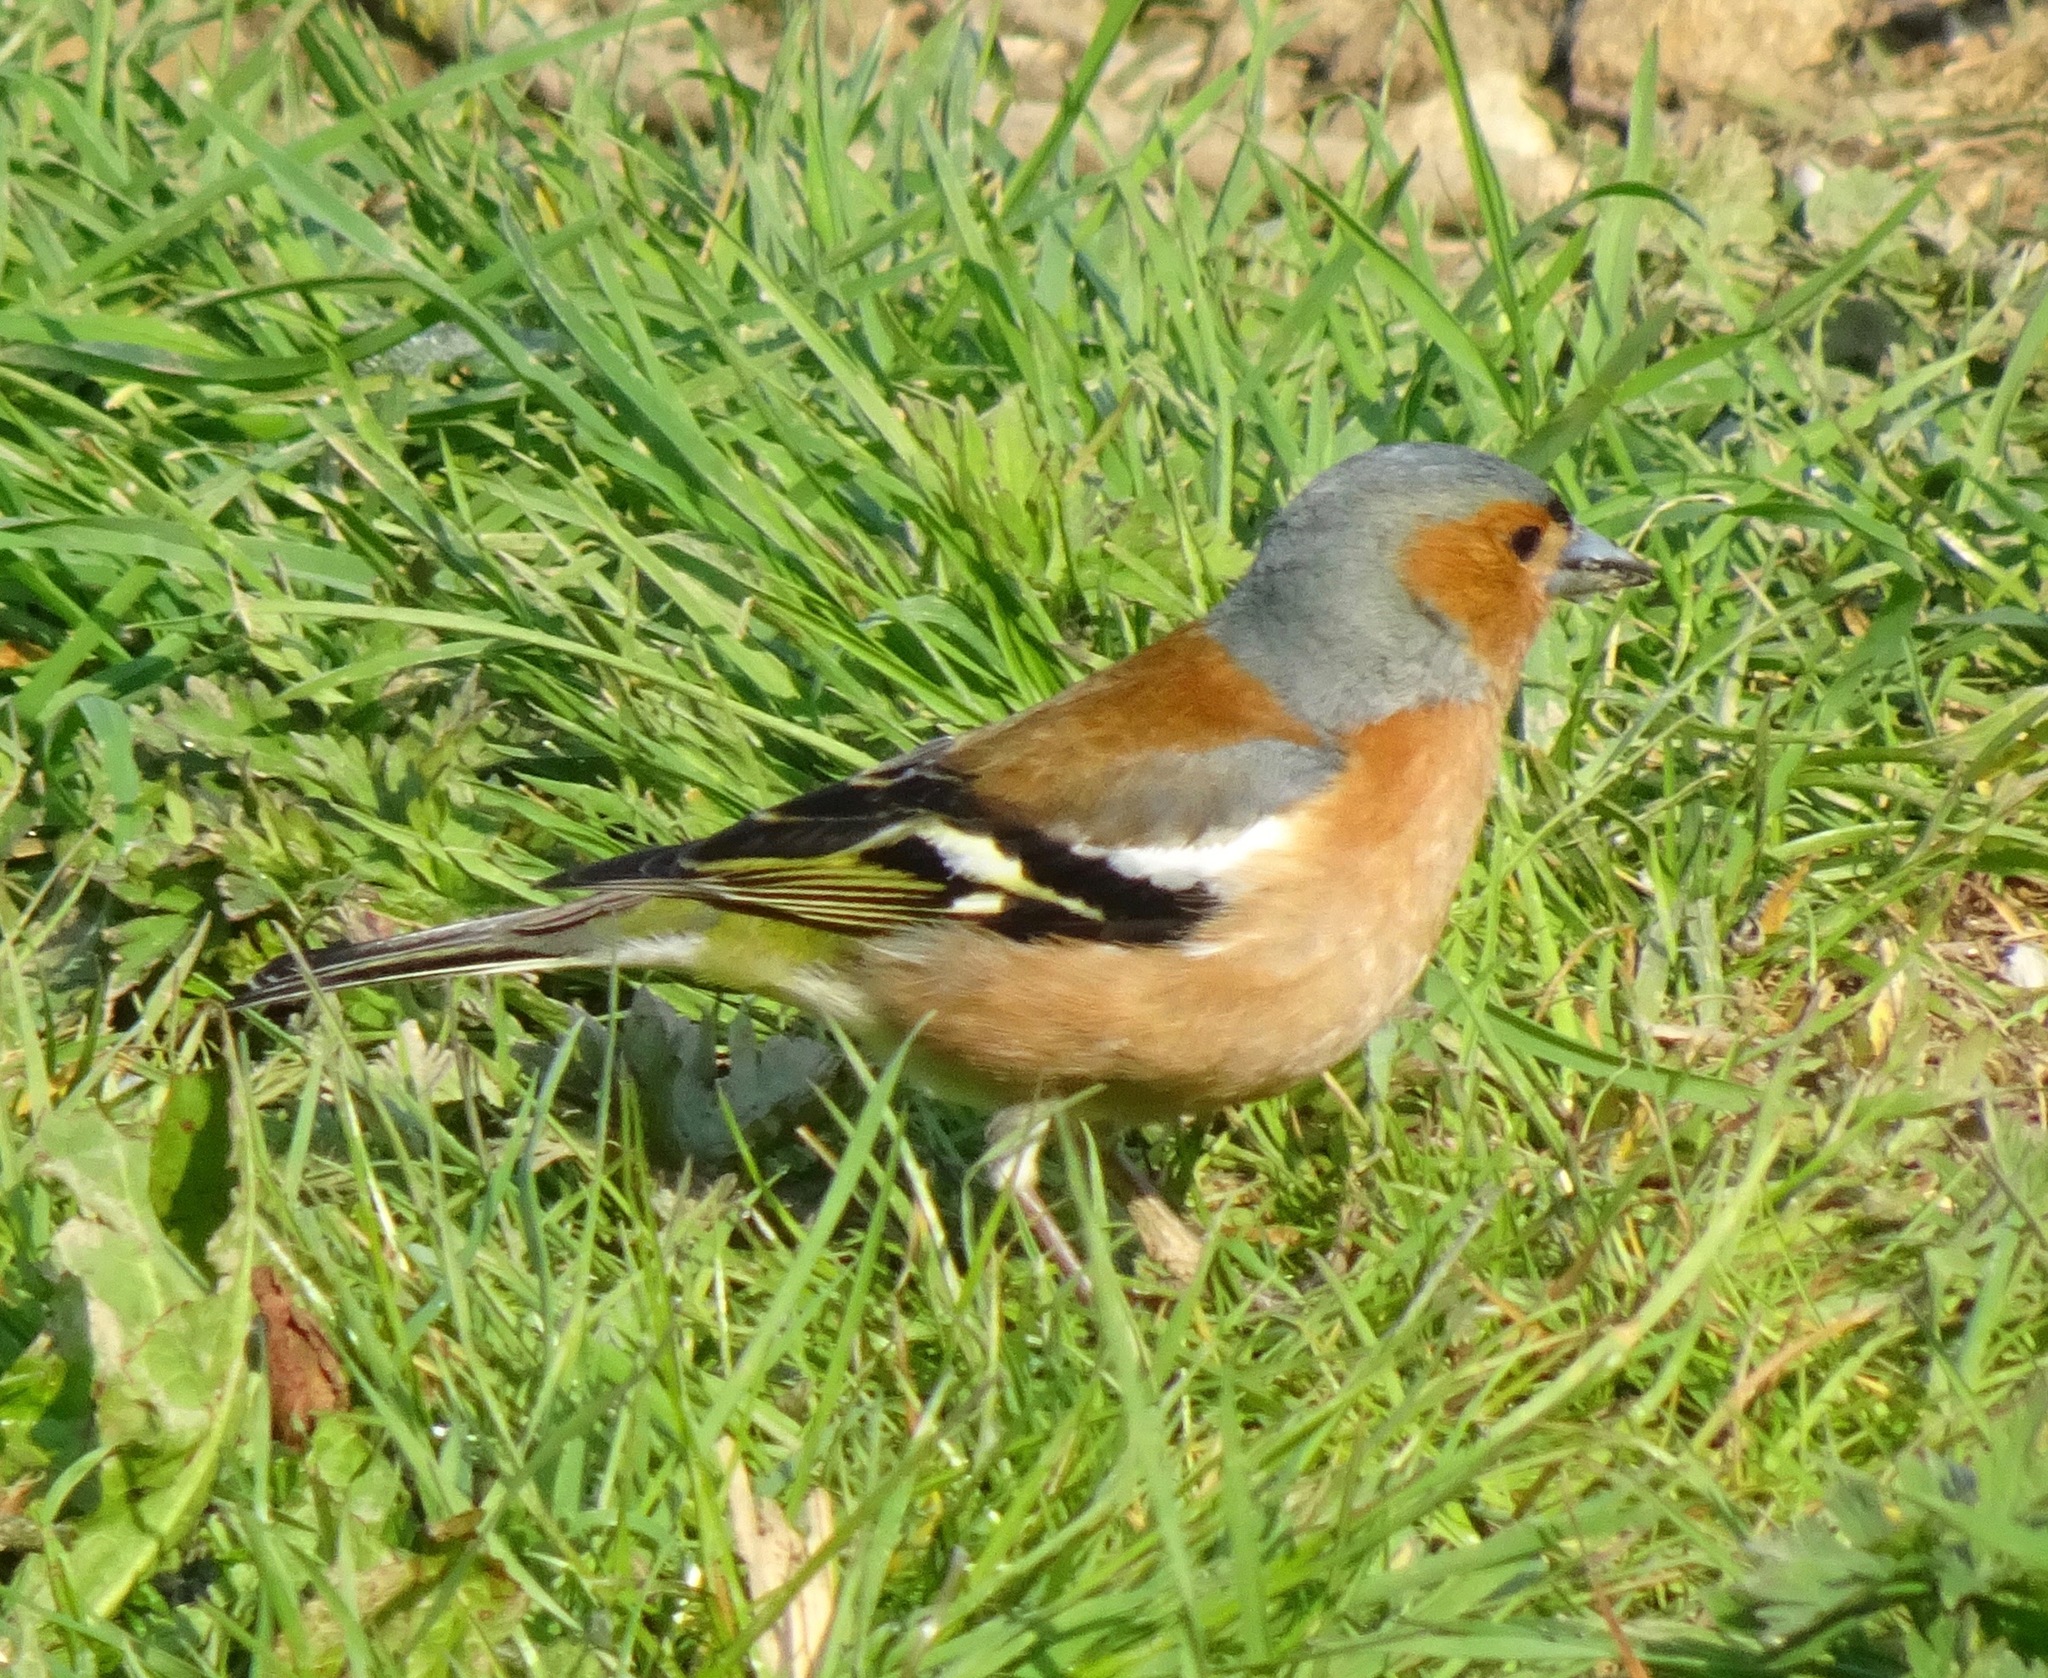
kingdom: Animalia
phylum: Chordata
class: Aves
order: Passeriformes
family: Fringillidae
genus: Fringilla
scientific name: Fringilla coelebs
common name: Common chaffinch
